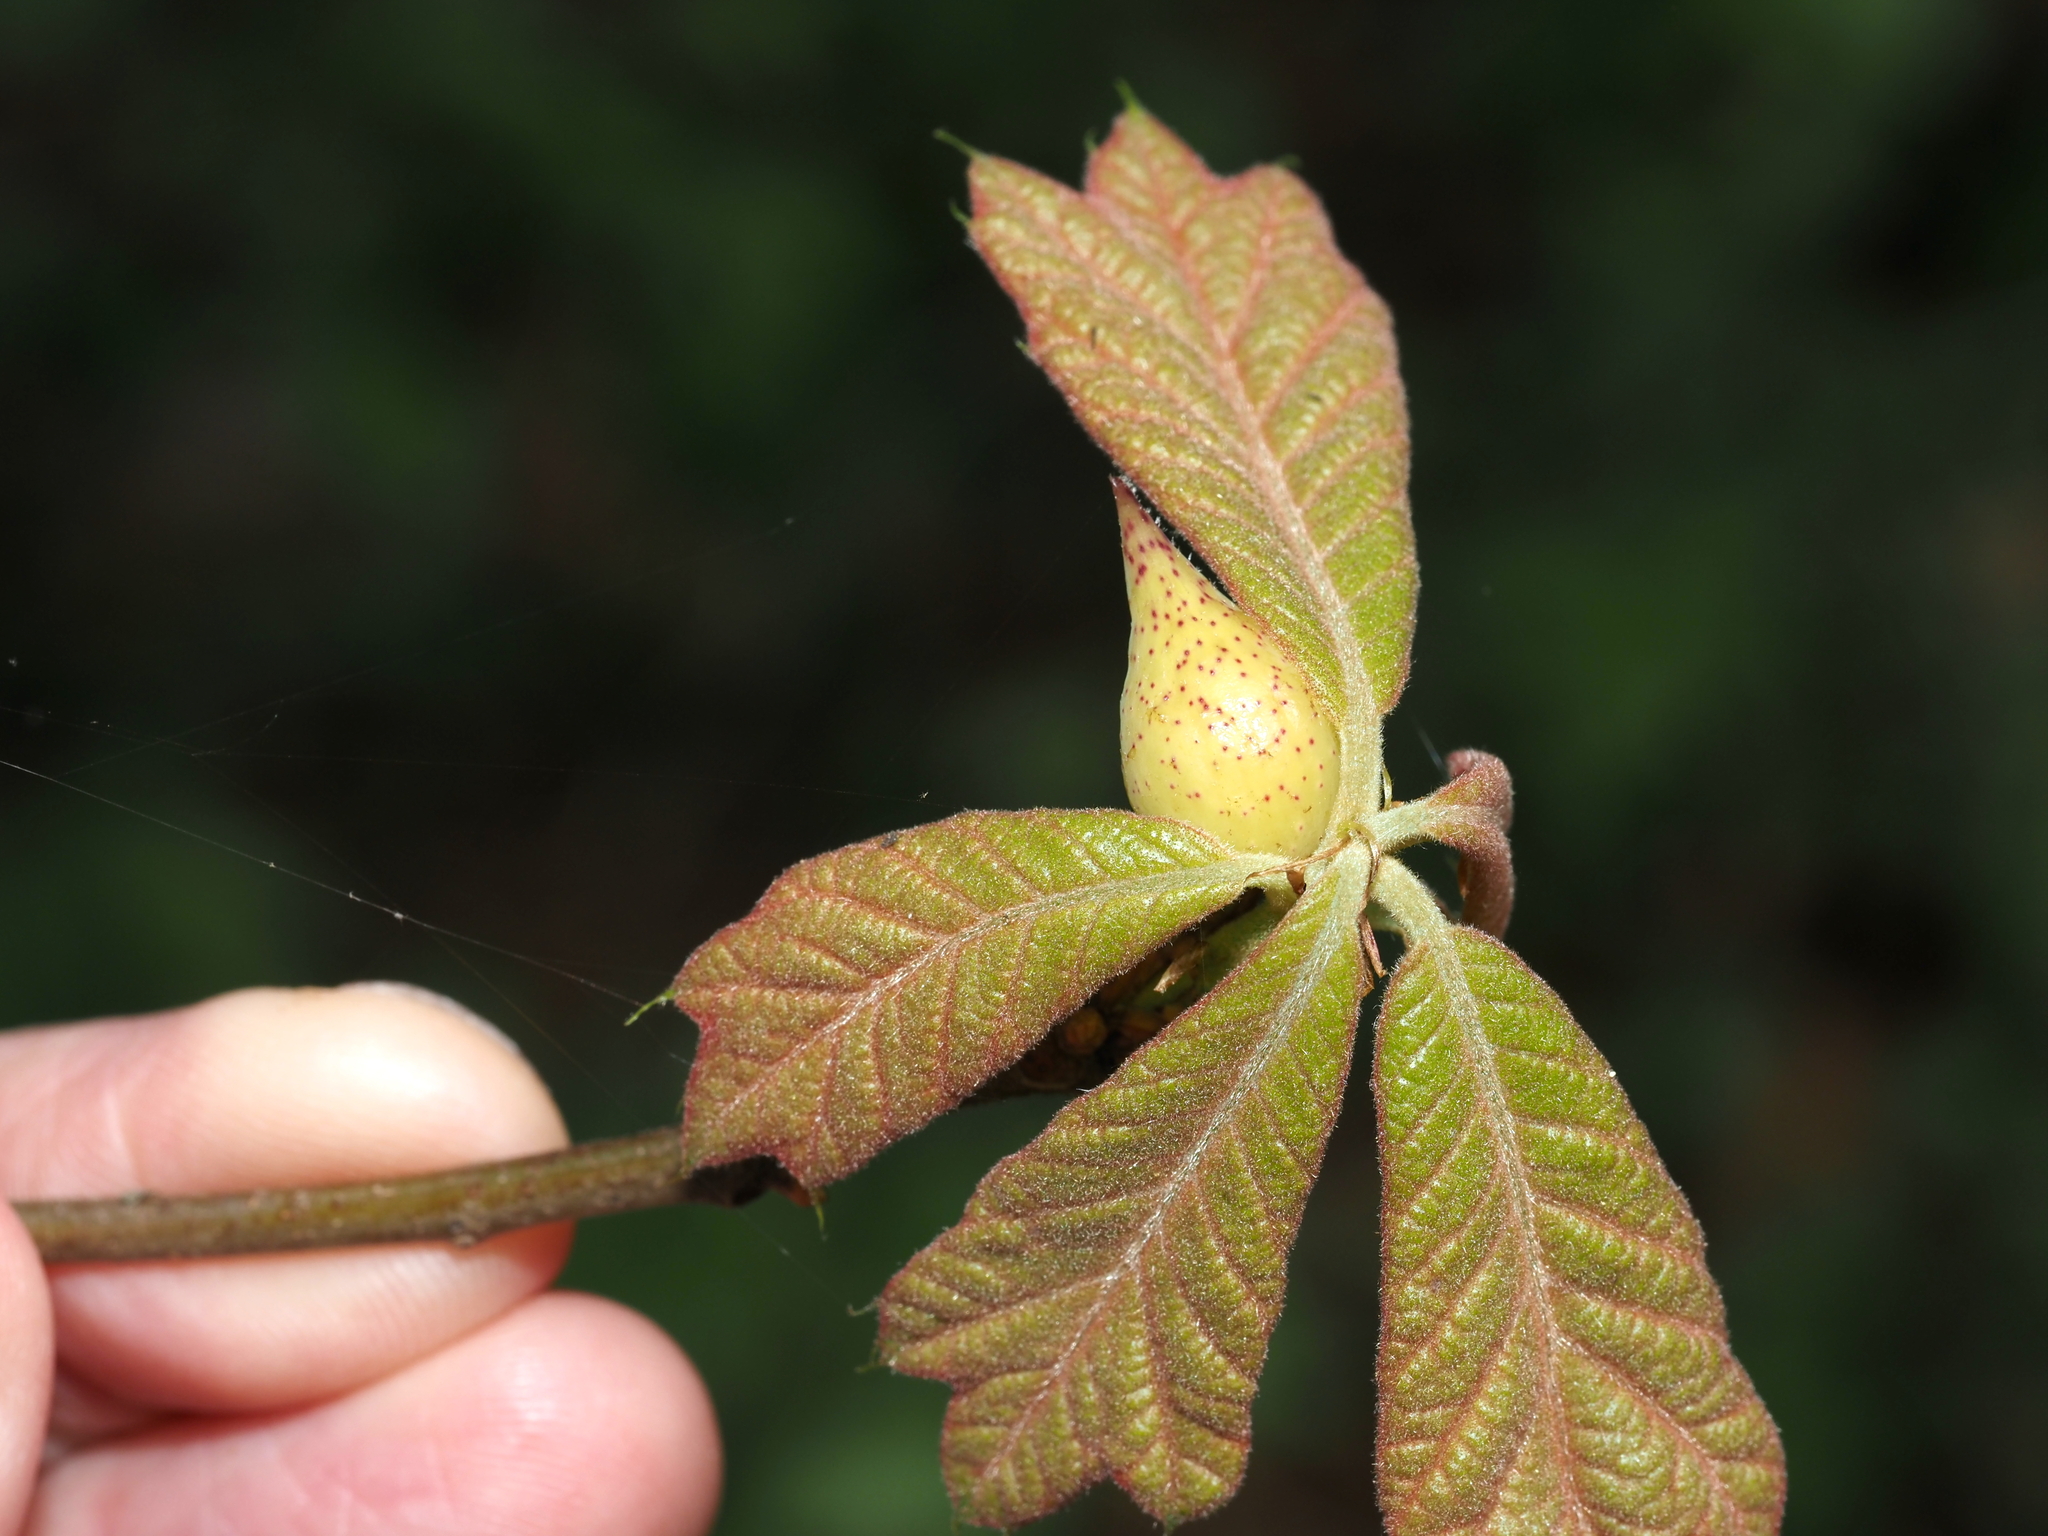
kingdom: Animalia
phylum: Arthropoda
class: Insecta
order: Hymenoptera
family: Cynipidae
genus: Amphibolips
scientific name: Amphibolips
